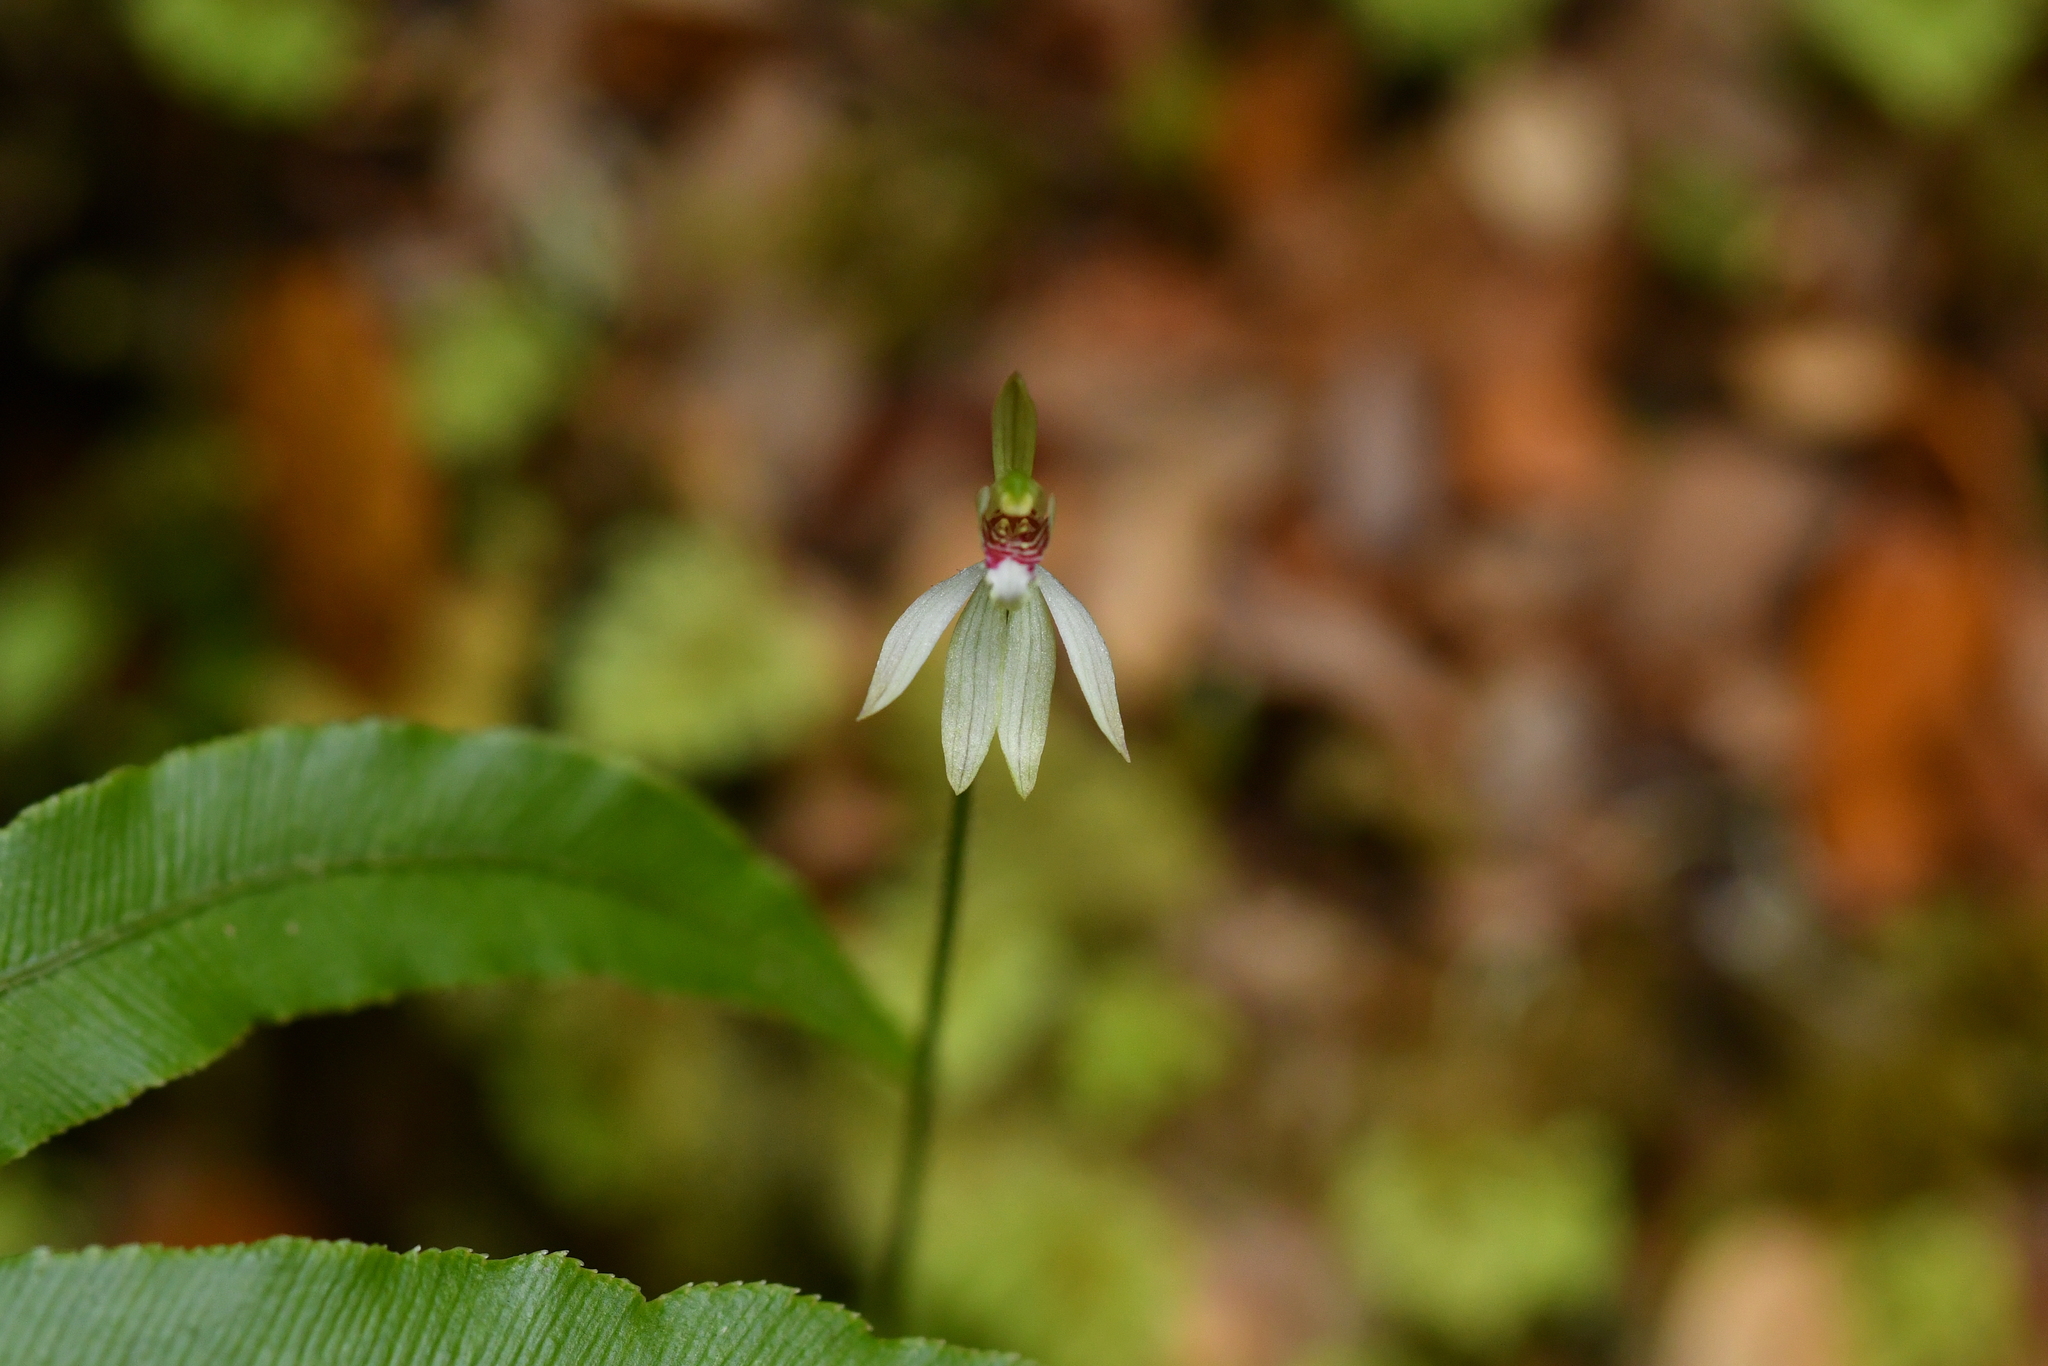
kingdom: Plantae
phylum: Tracheophyta
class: Liliopsida
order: Asparagales
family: Orchidaceae
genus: Caladenia
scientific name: Caladenia chlorostyla
